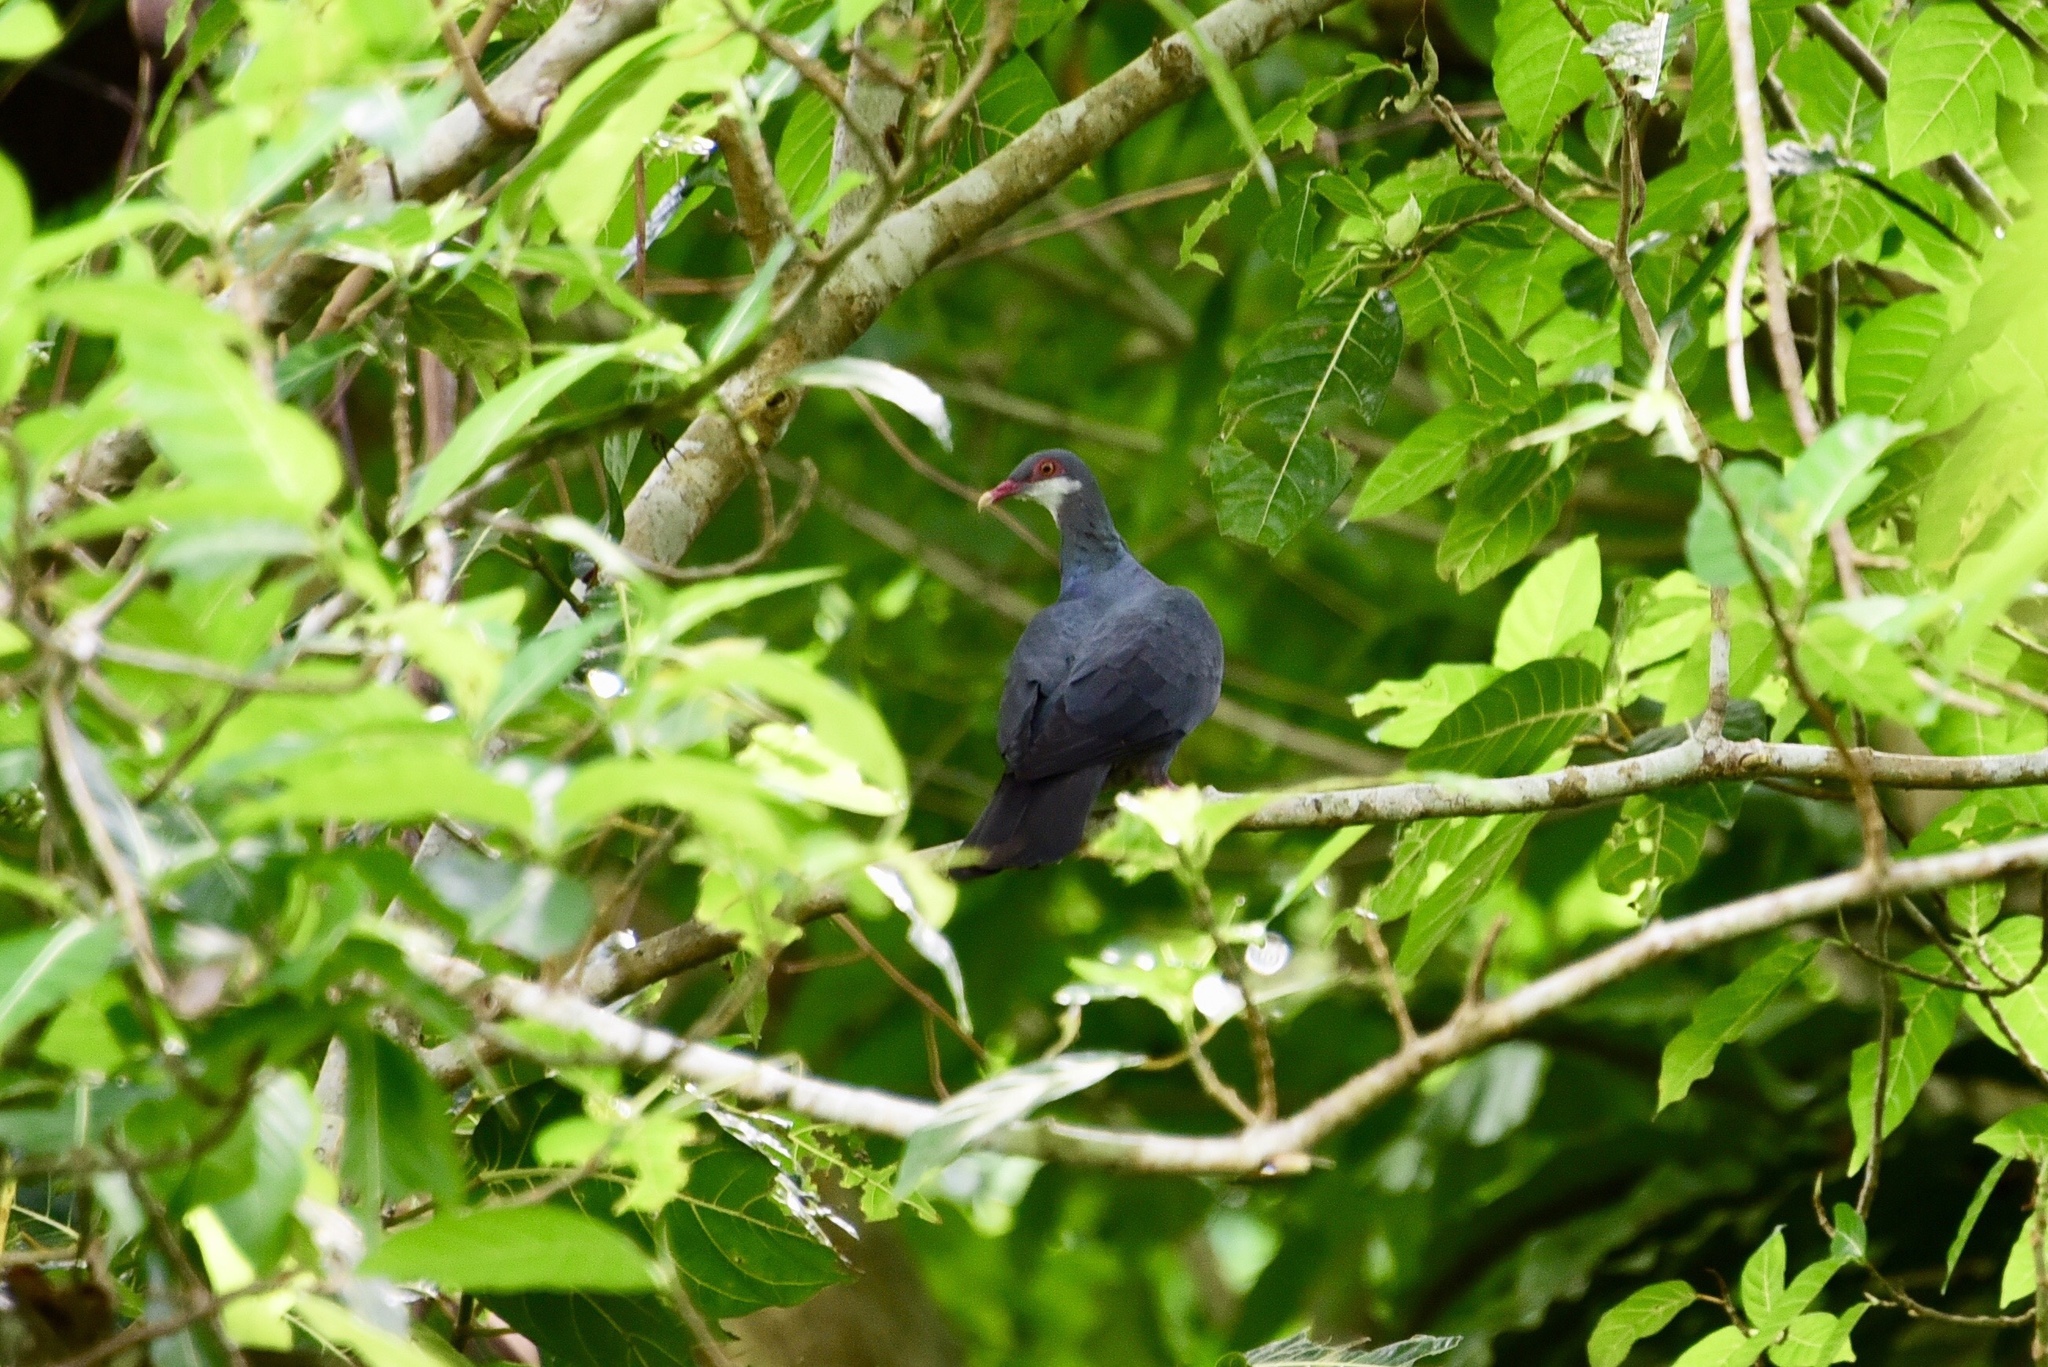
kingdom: Animalia
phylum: Chordata
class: Aves
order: Columbiformes
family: Columbidae
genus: Columba
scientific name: Columba vitiensis
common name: Metallic pigeon
